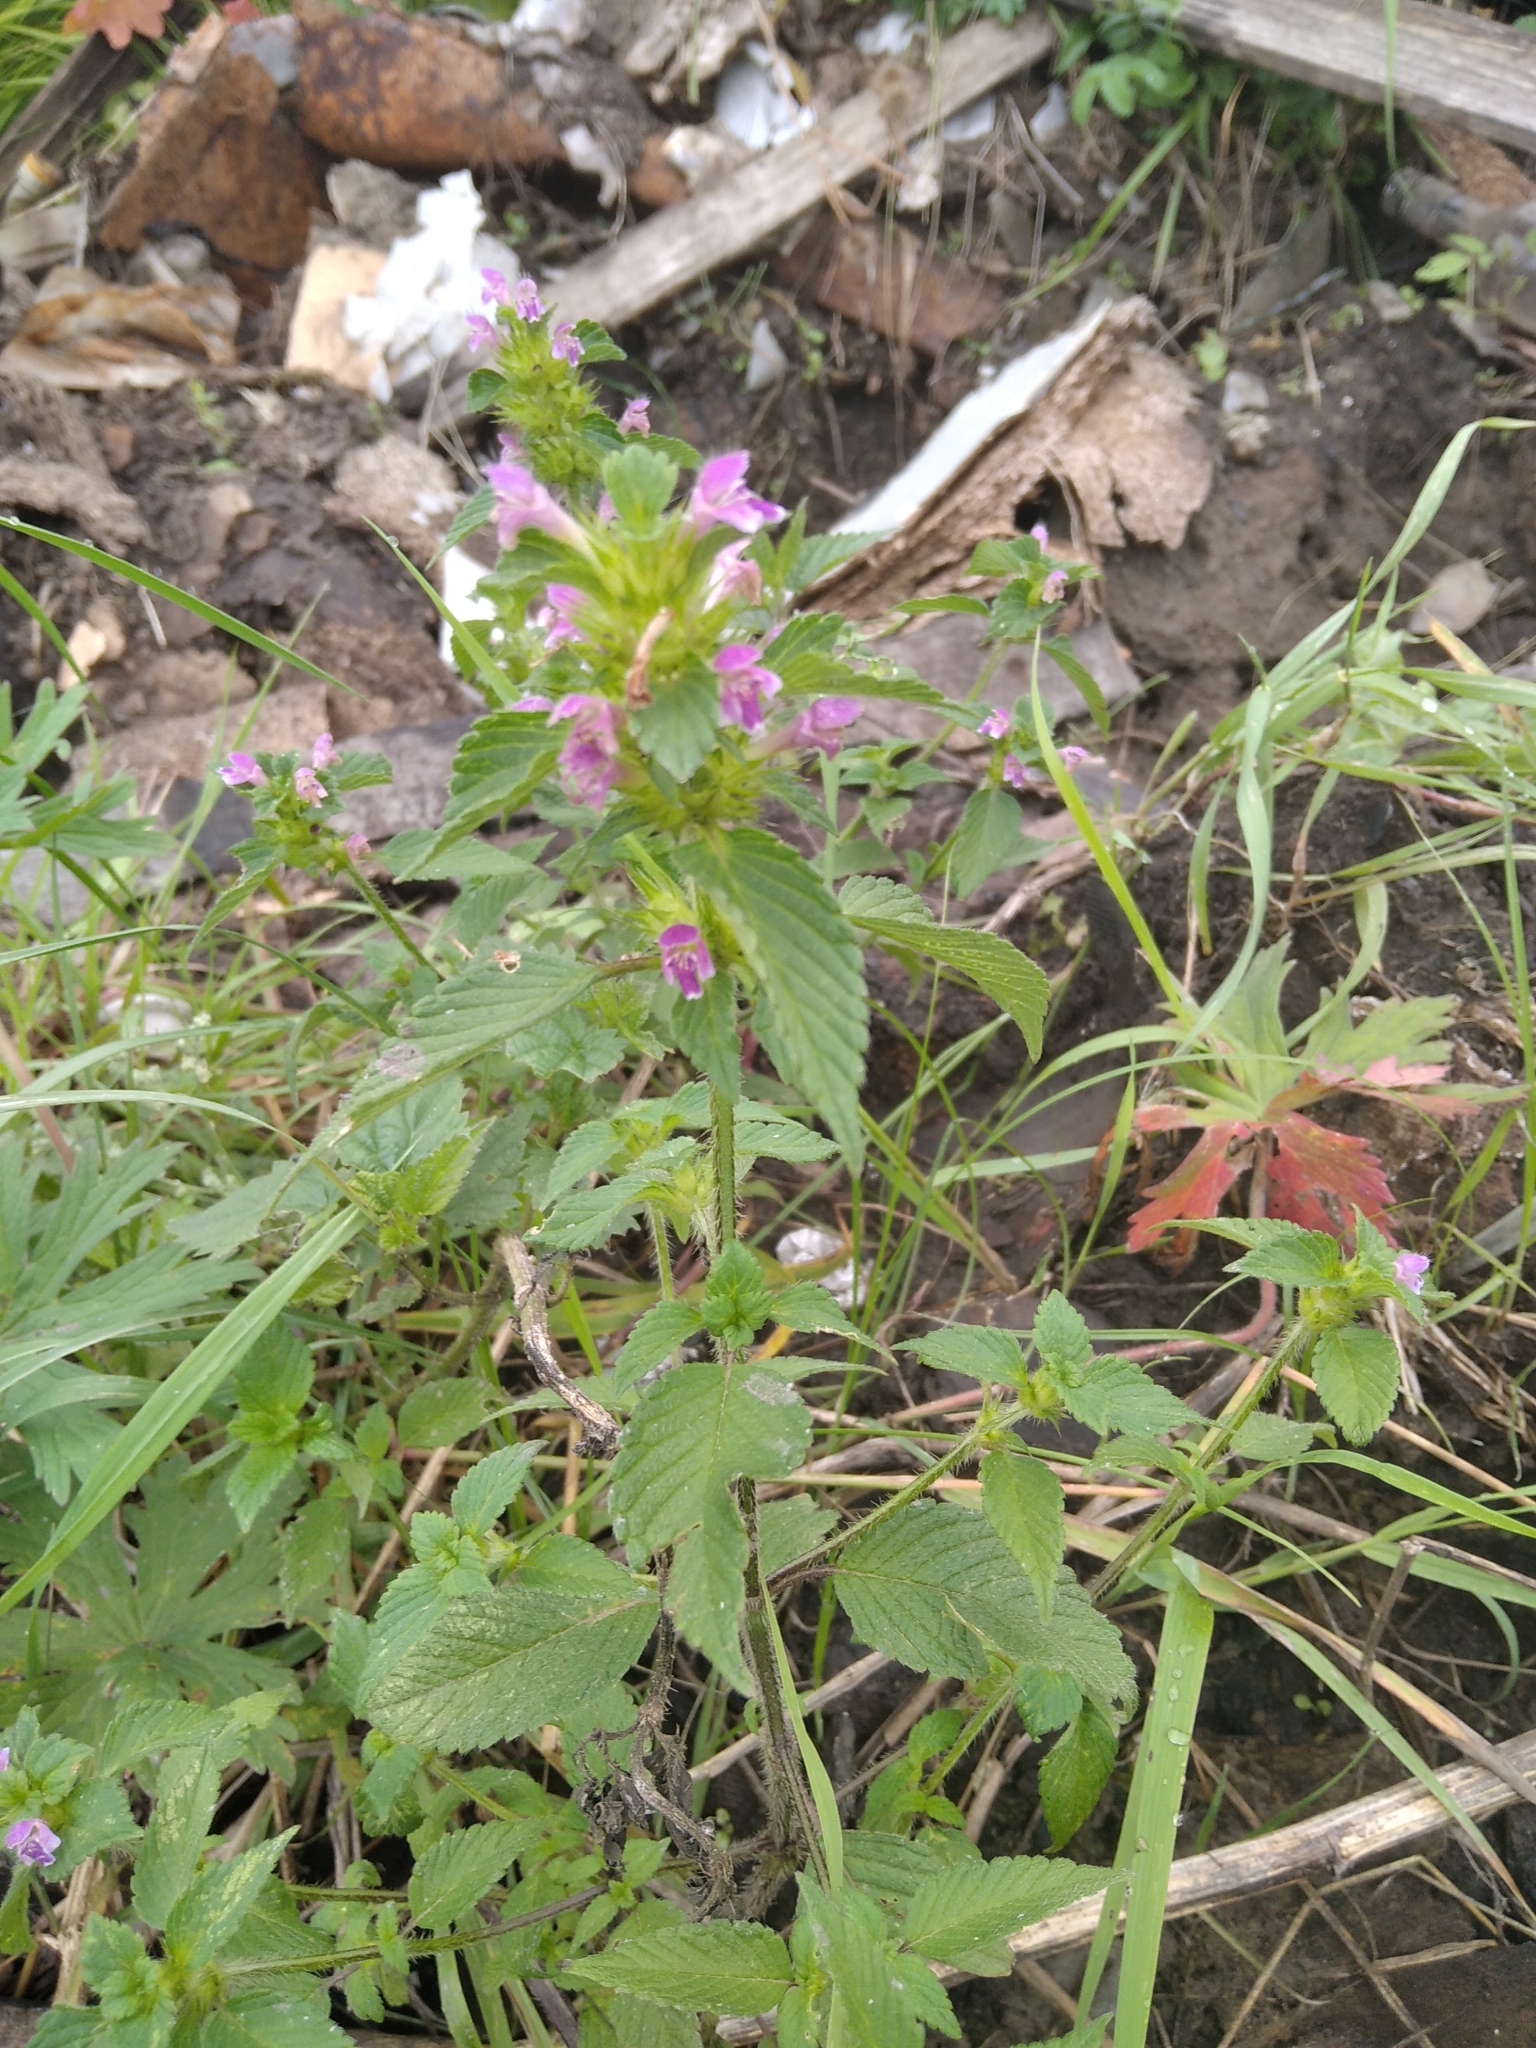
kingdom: Plantae
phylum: Tracheophyta
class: Magnoliopsida
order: Lamiales
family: Lamiaceae
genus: Galeopsis
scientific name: Galeopsis bifida
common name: Bifid hemp-nettle
